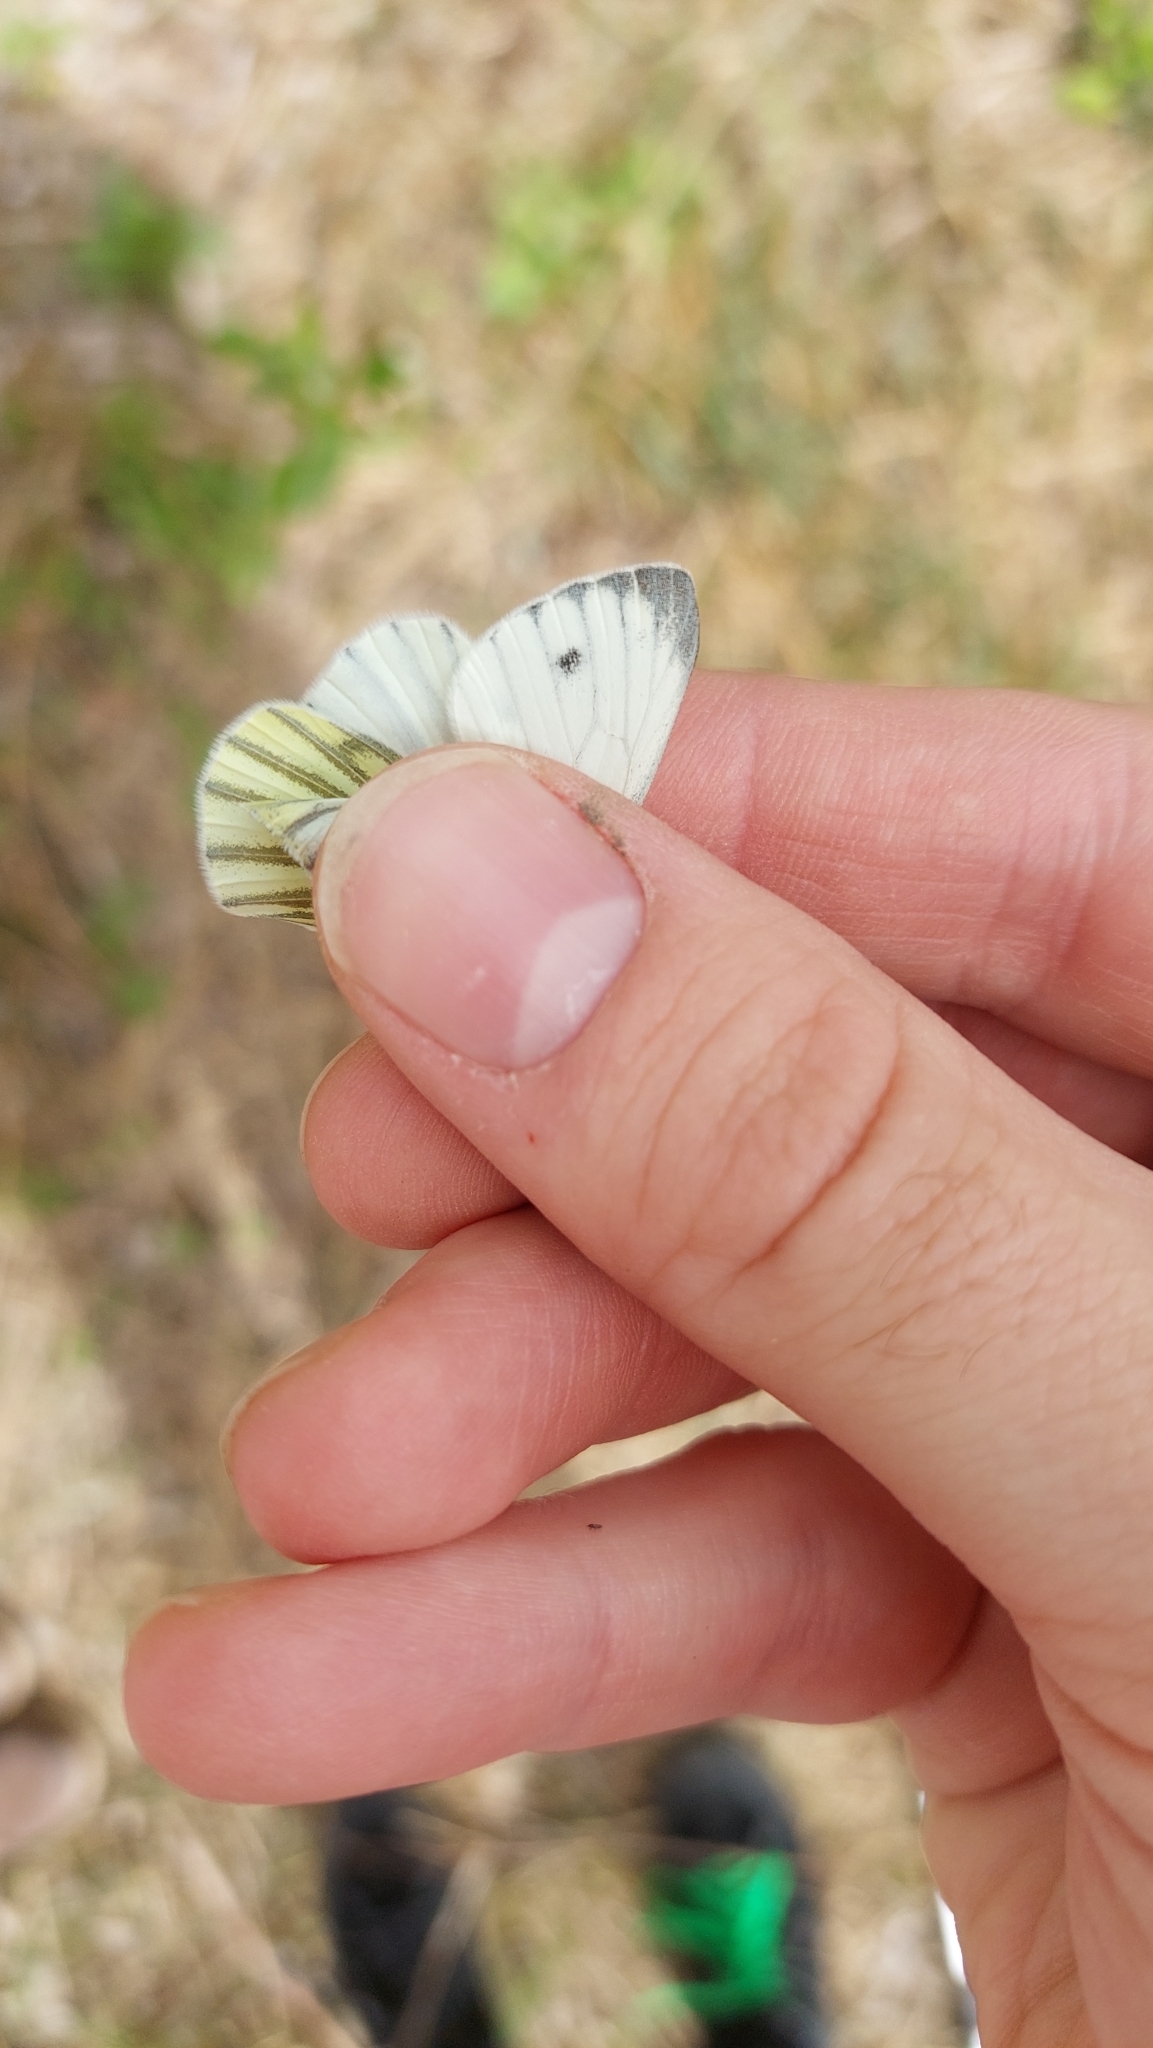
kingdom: Animalia
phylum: Arthropoda
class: Insecta
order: Lepidoptera
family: Pieridae
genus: Pieris
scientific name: Pieris napi
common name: Green-veined white
